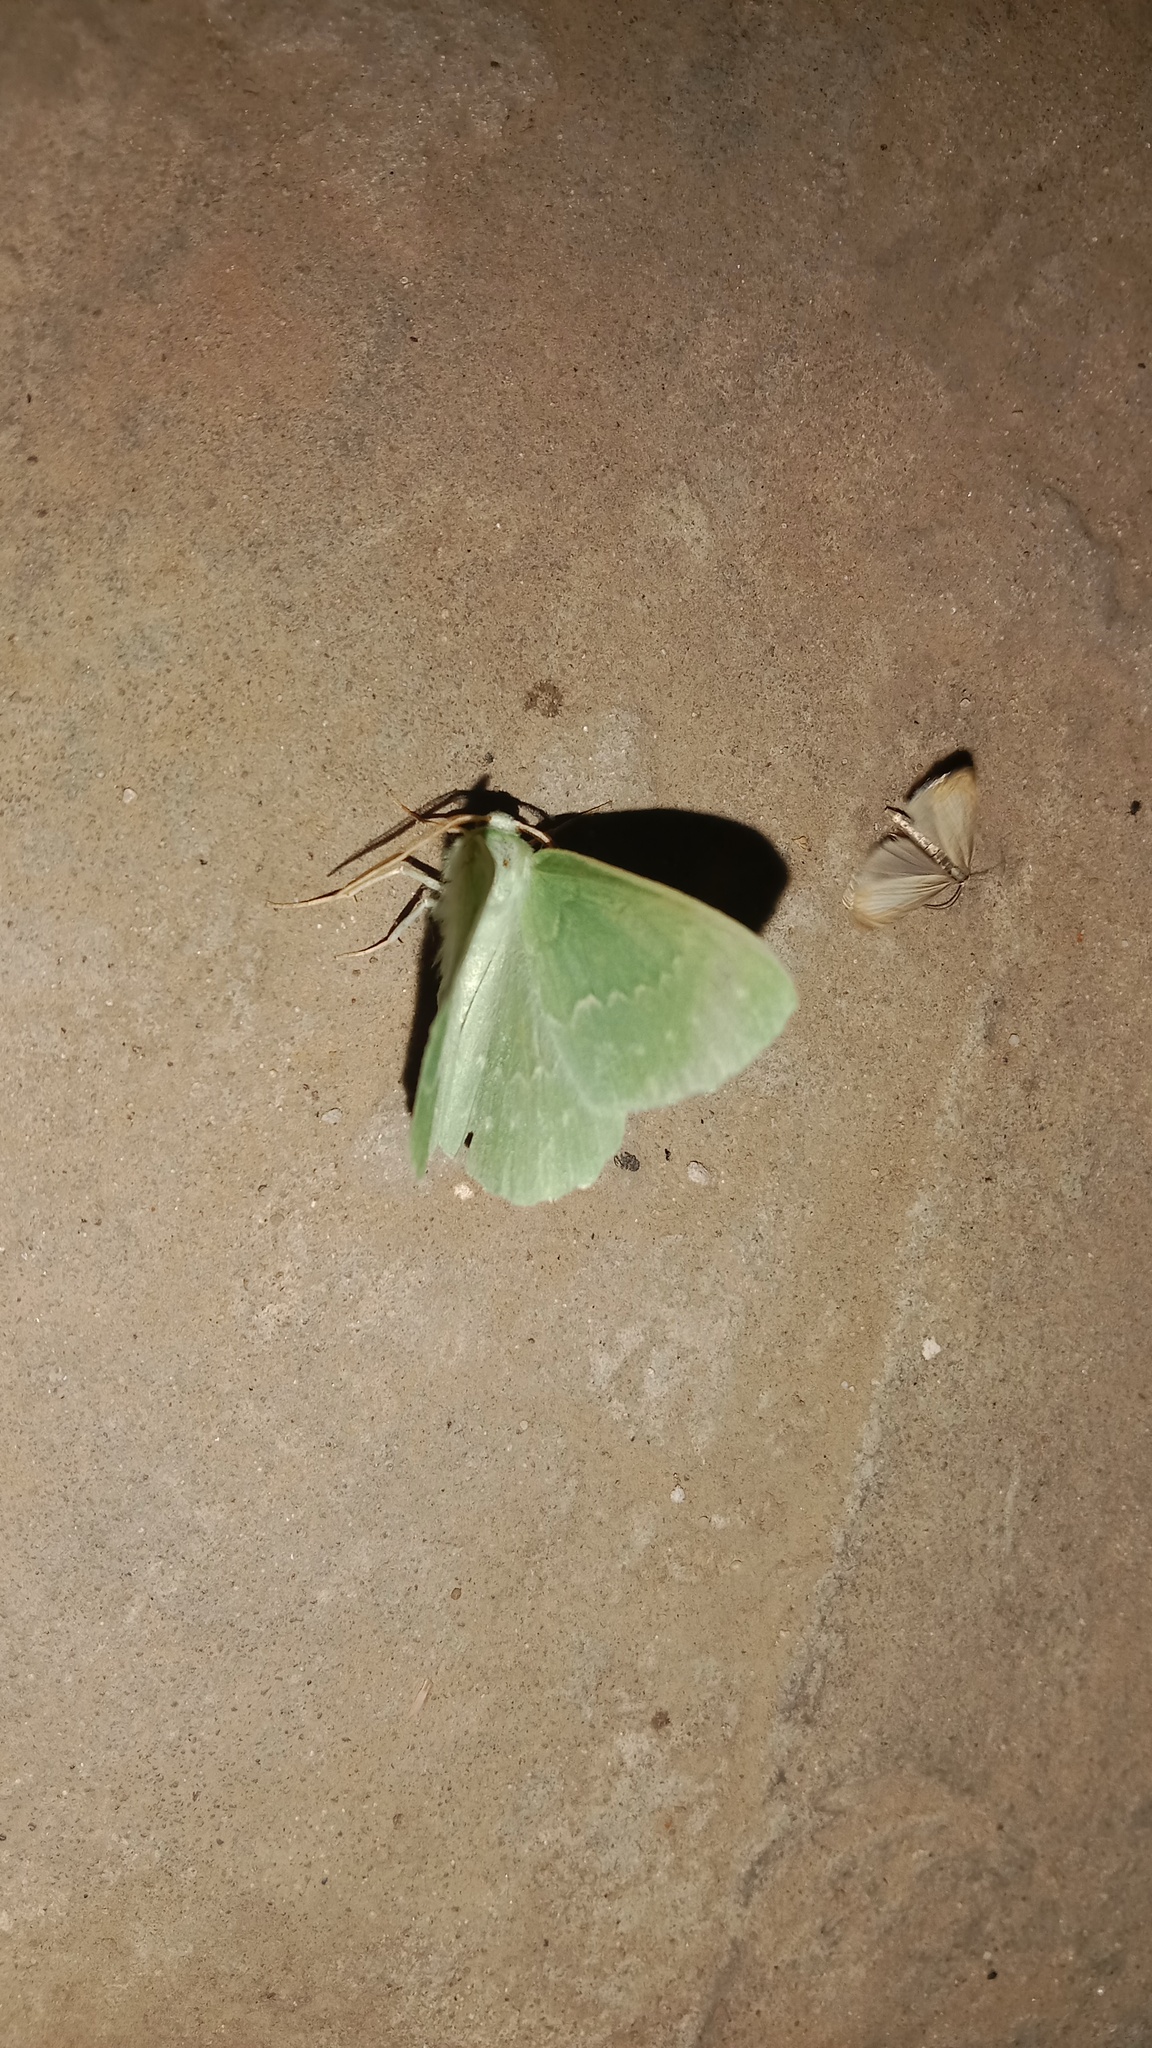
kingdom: Animalia
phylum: Arthropoda
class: Insecta
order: Lepidoptera
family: Geometridae
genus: Geometra
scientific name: Geometra papilionaria
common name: Large emerald
